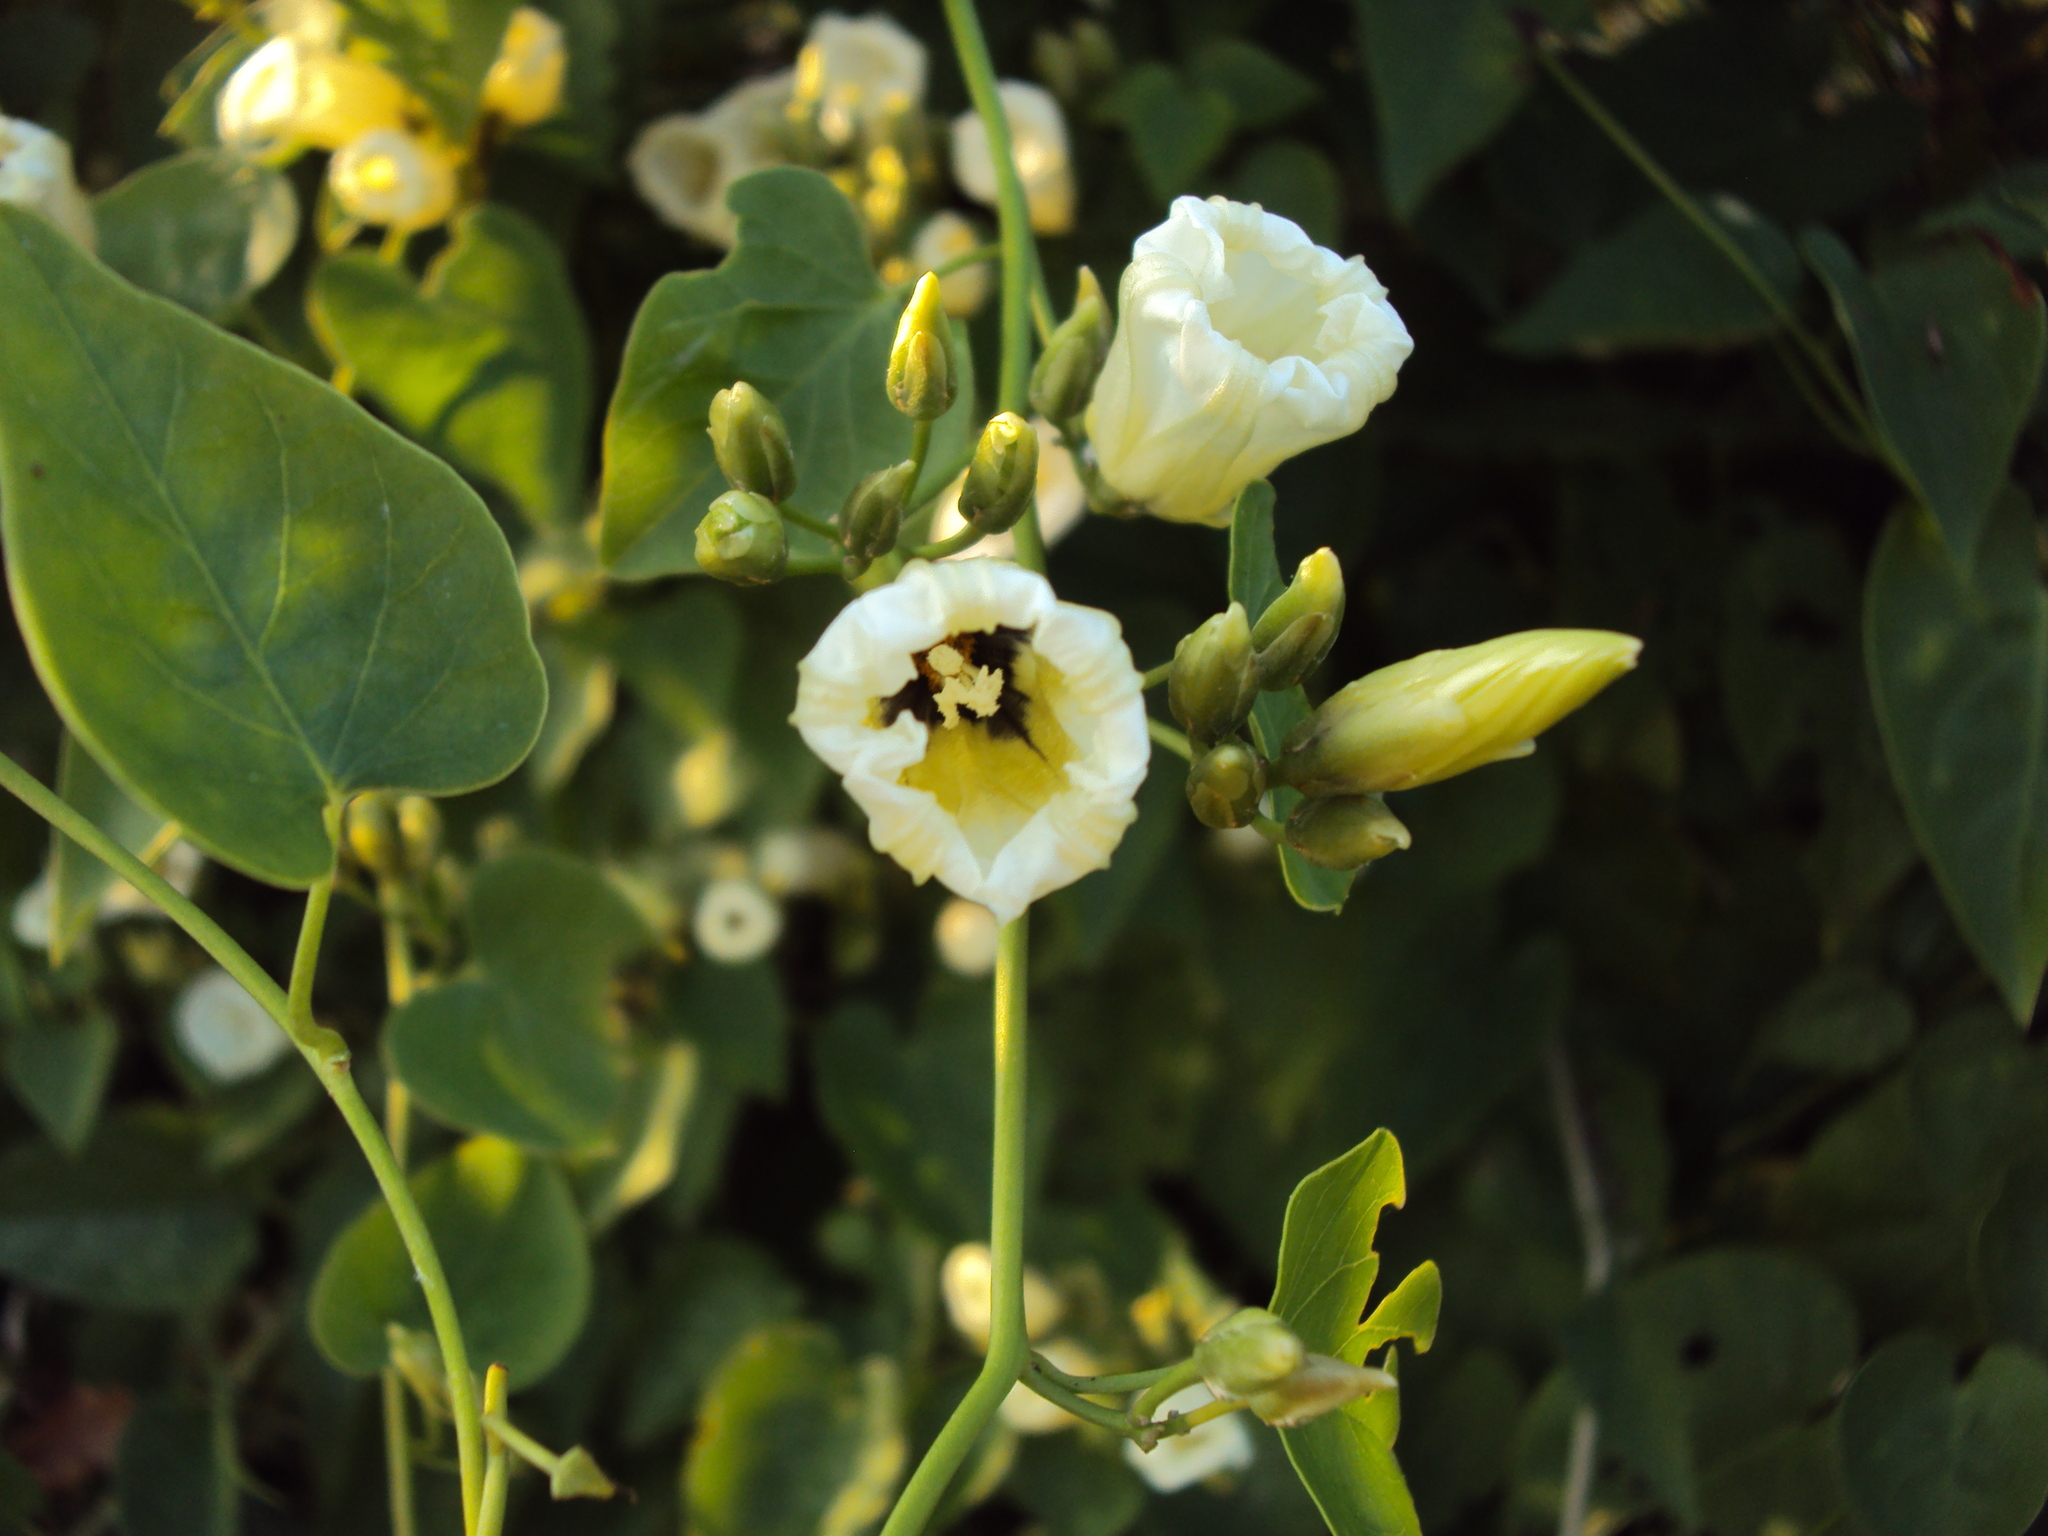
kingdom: Plantae
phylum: Tracheophyta
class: Magnoliopsida
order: Solanales
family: Convolvulaceae
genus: Ipomoea
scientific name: Ipomoea corymbosa
